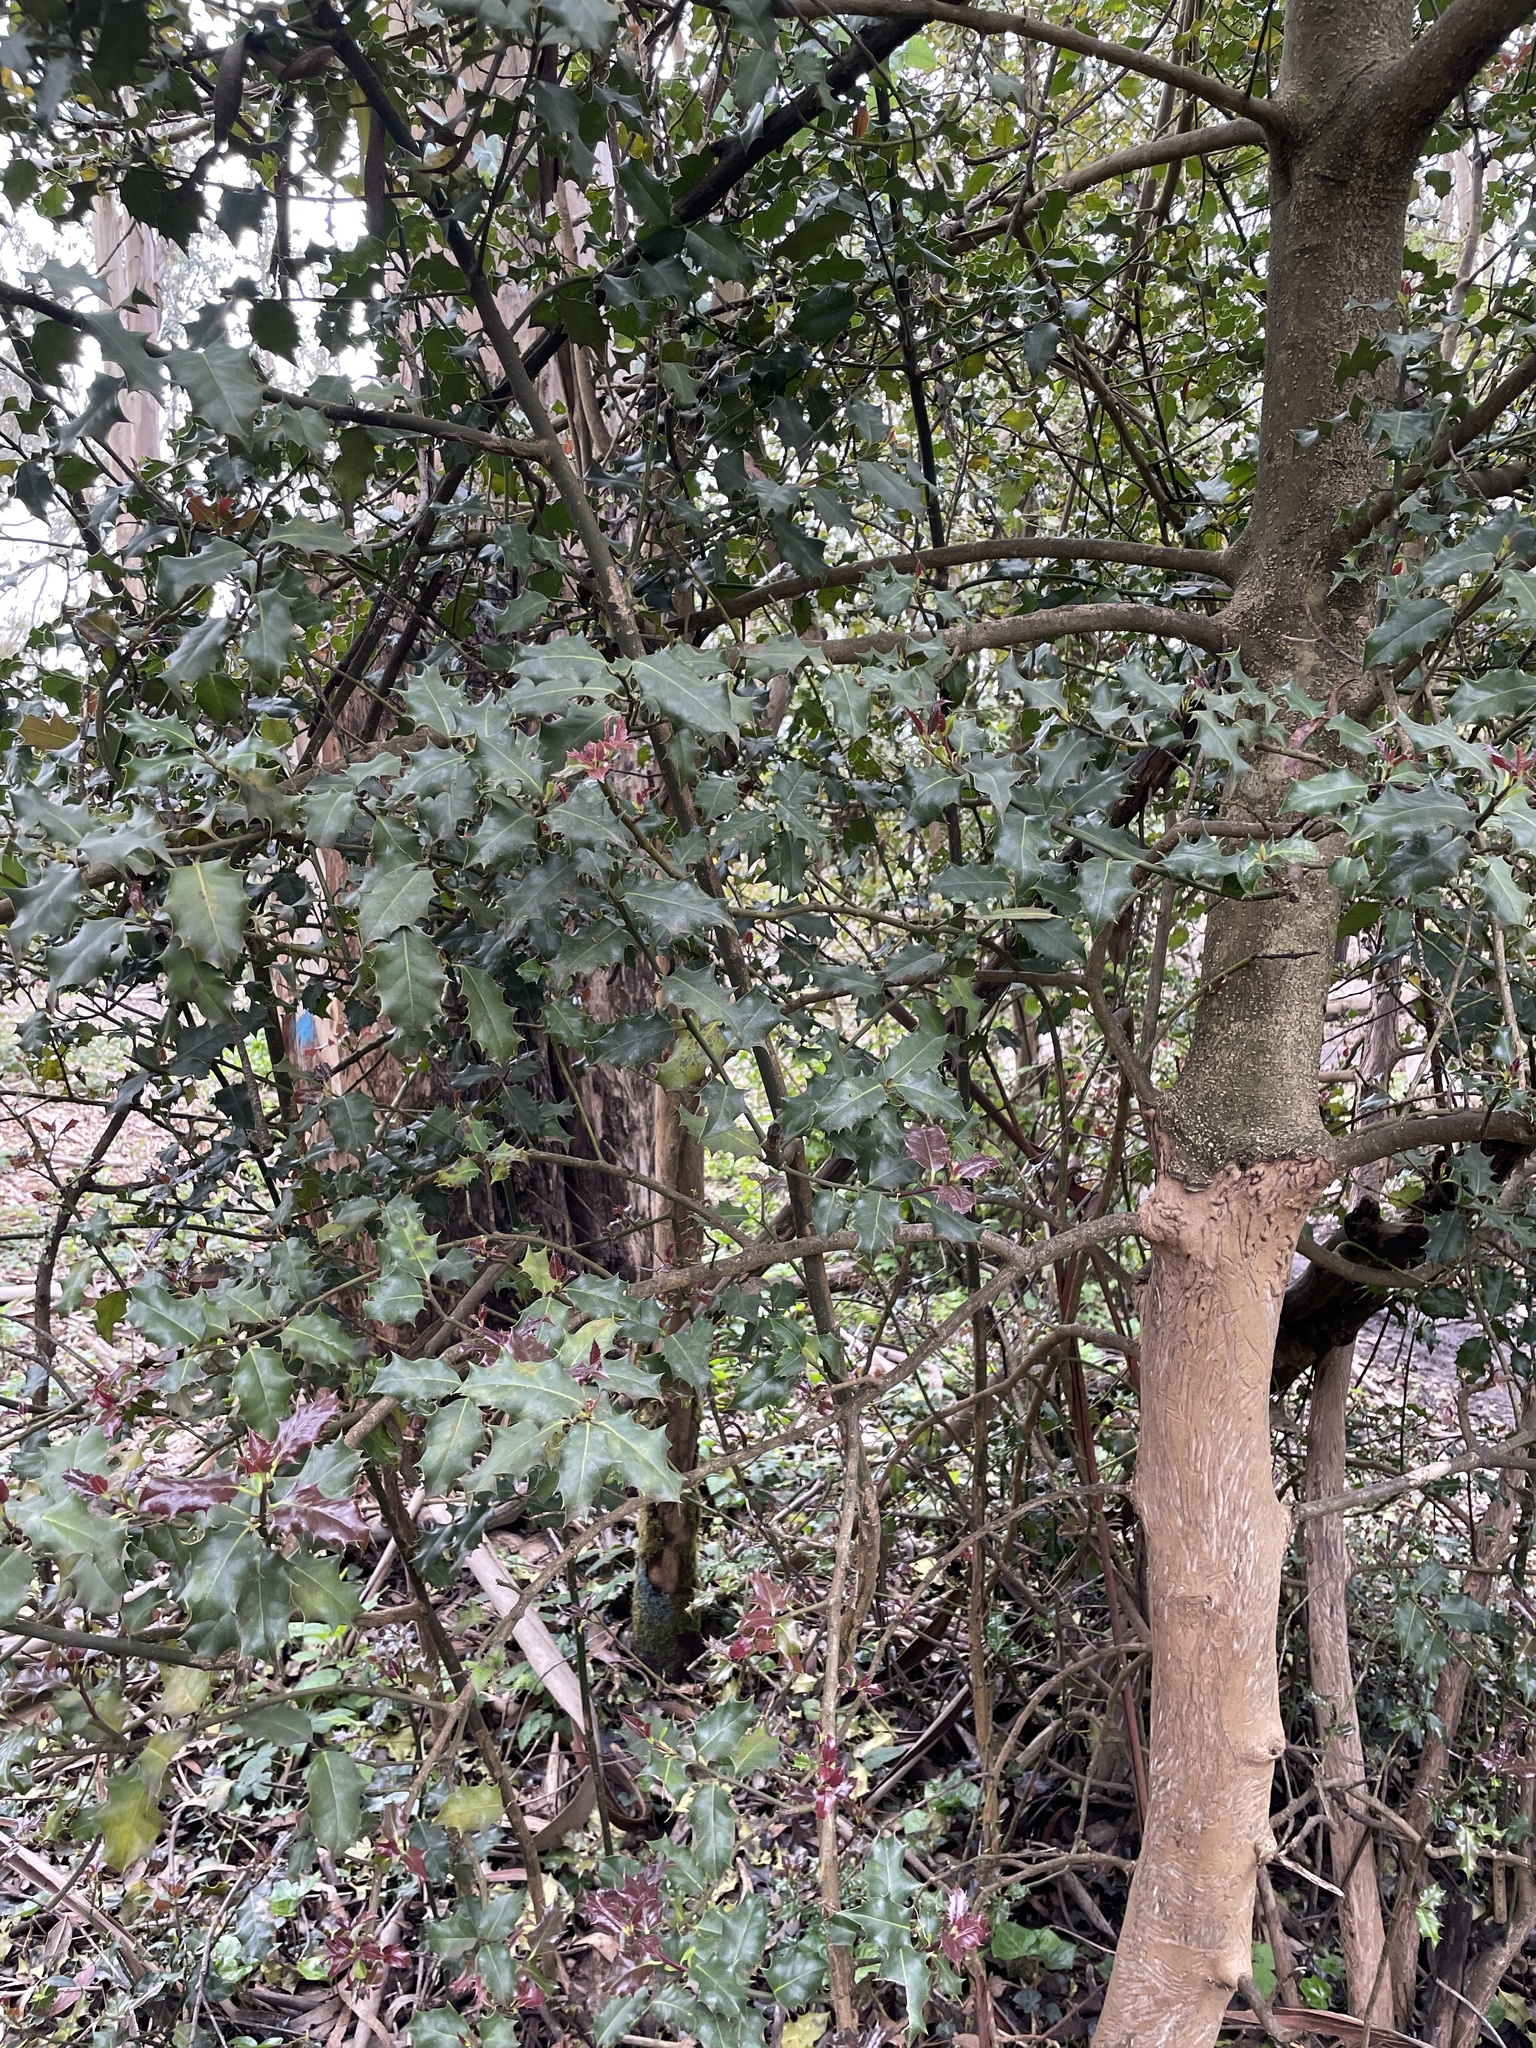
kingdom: Plantae
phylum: Tracheophyta
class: Magnoliopsida
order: Aquifoliales
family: Aquifoliaceae
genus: Ilex
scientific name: Ilex aquifolium
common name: English holly
